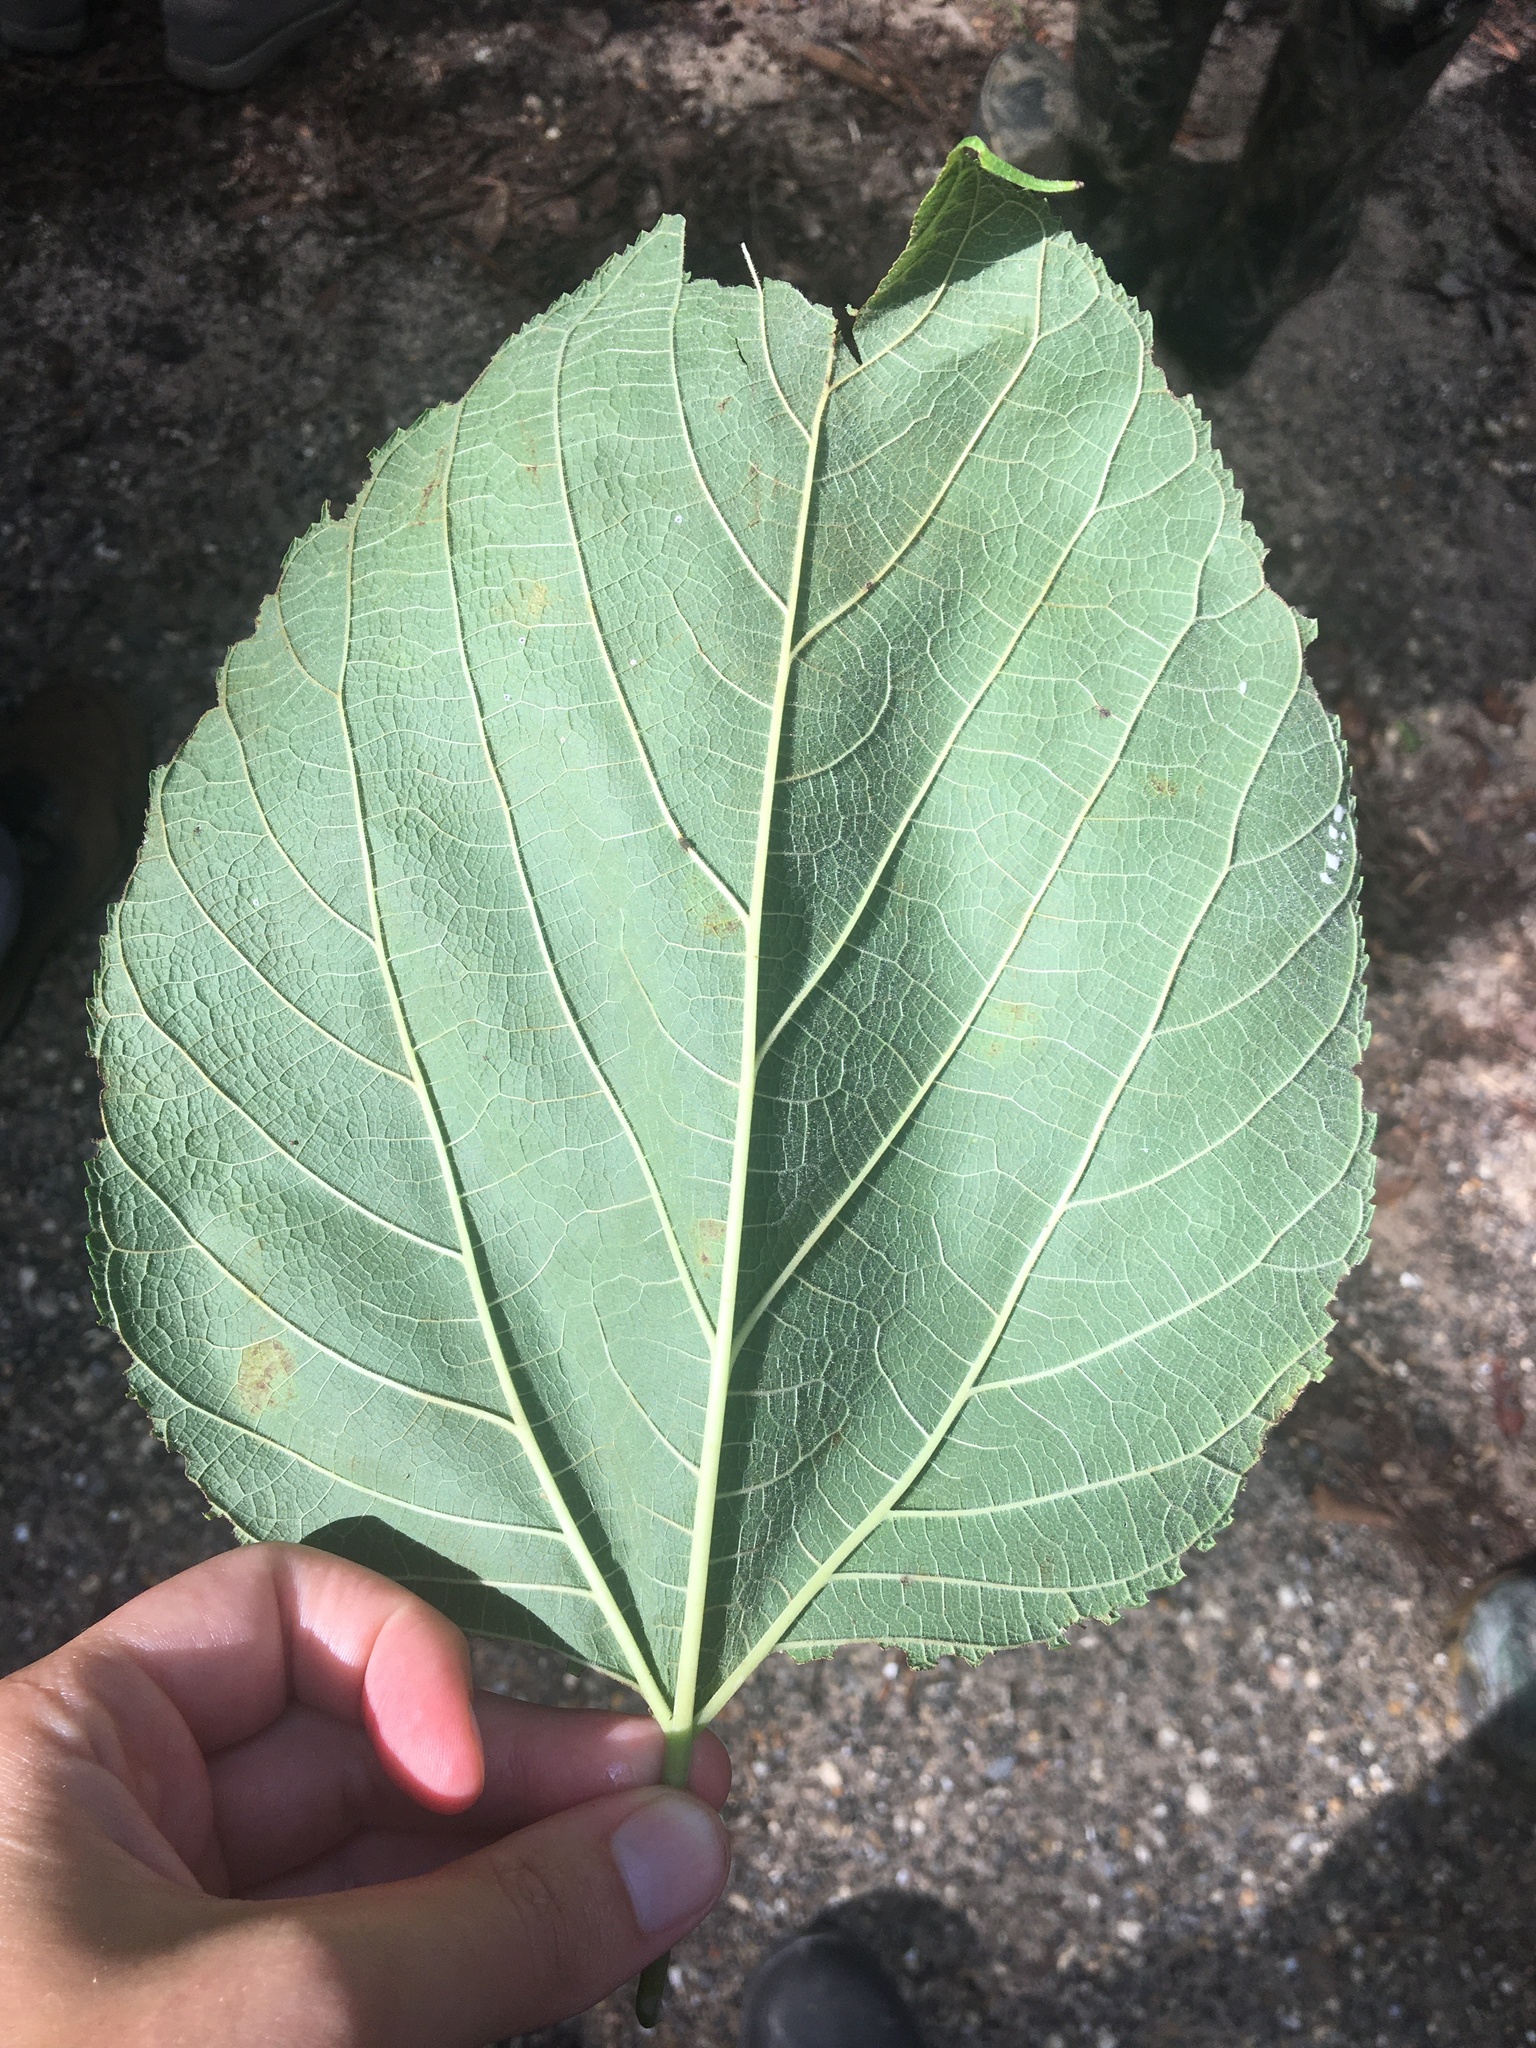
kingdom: Plantae
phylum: Tracheophyta
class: Magnoliopsida
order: Rosales
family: Moraceae
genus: Morus
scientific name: Morus rubra
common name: Red mulberry
